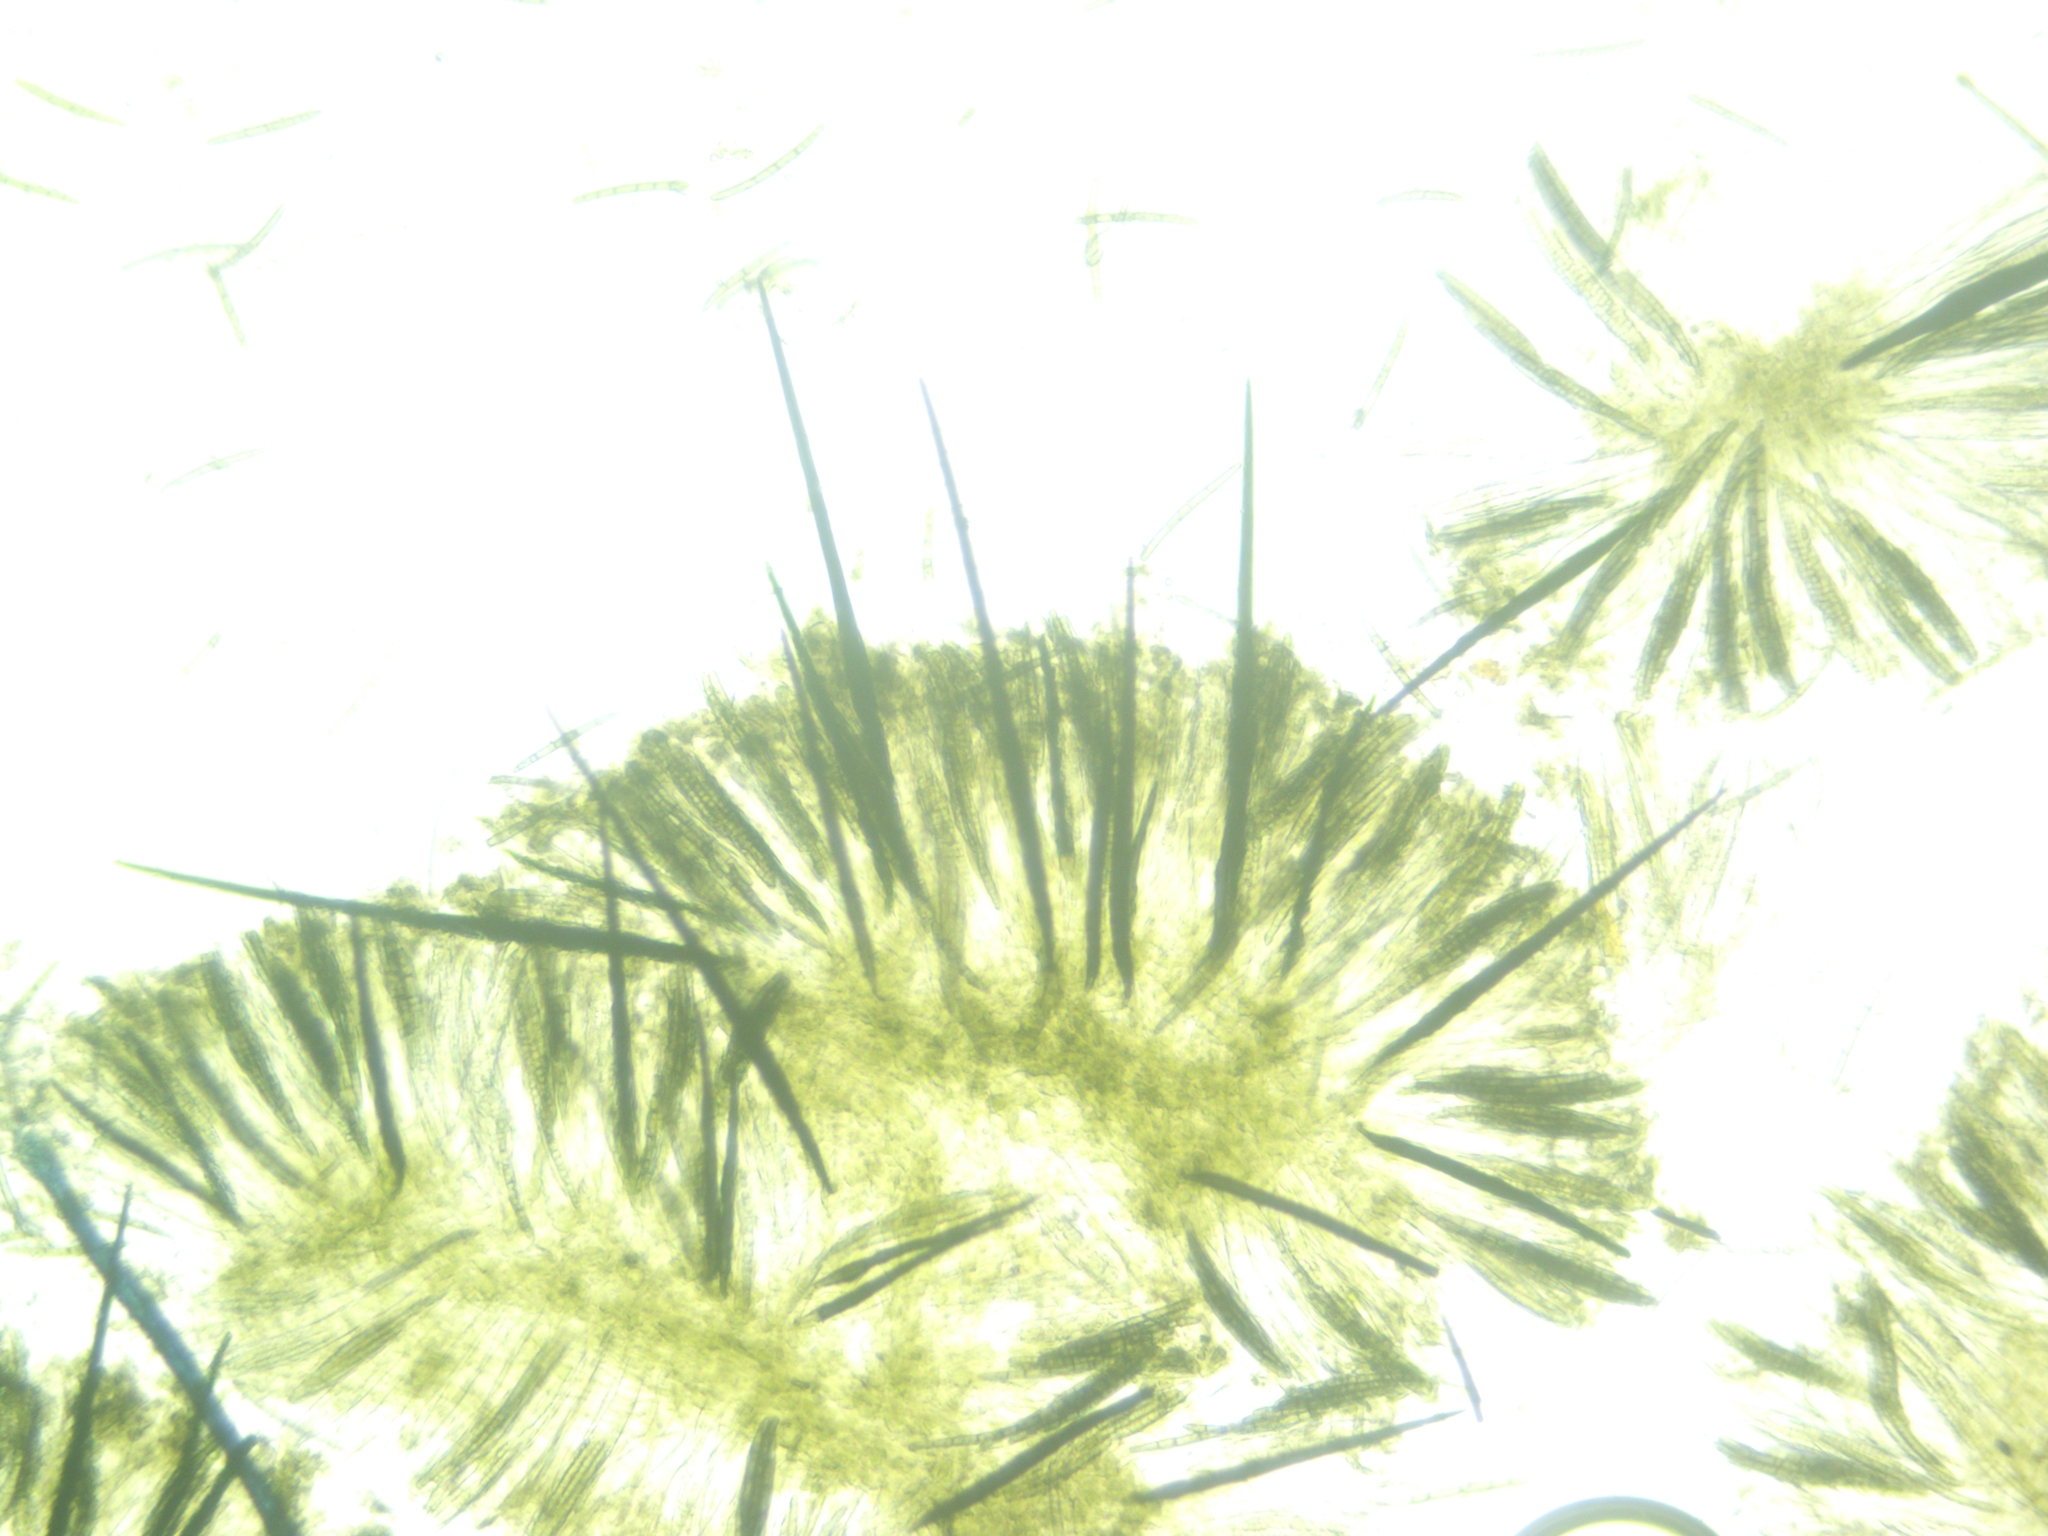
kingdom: Fungi
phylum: Ascomycota
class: Geoglossomycetes
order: Geoglossales
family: Geoglossaceae
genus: Trichoglossum
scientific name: Trichoglossum farlowii
